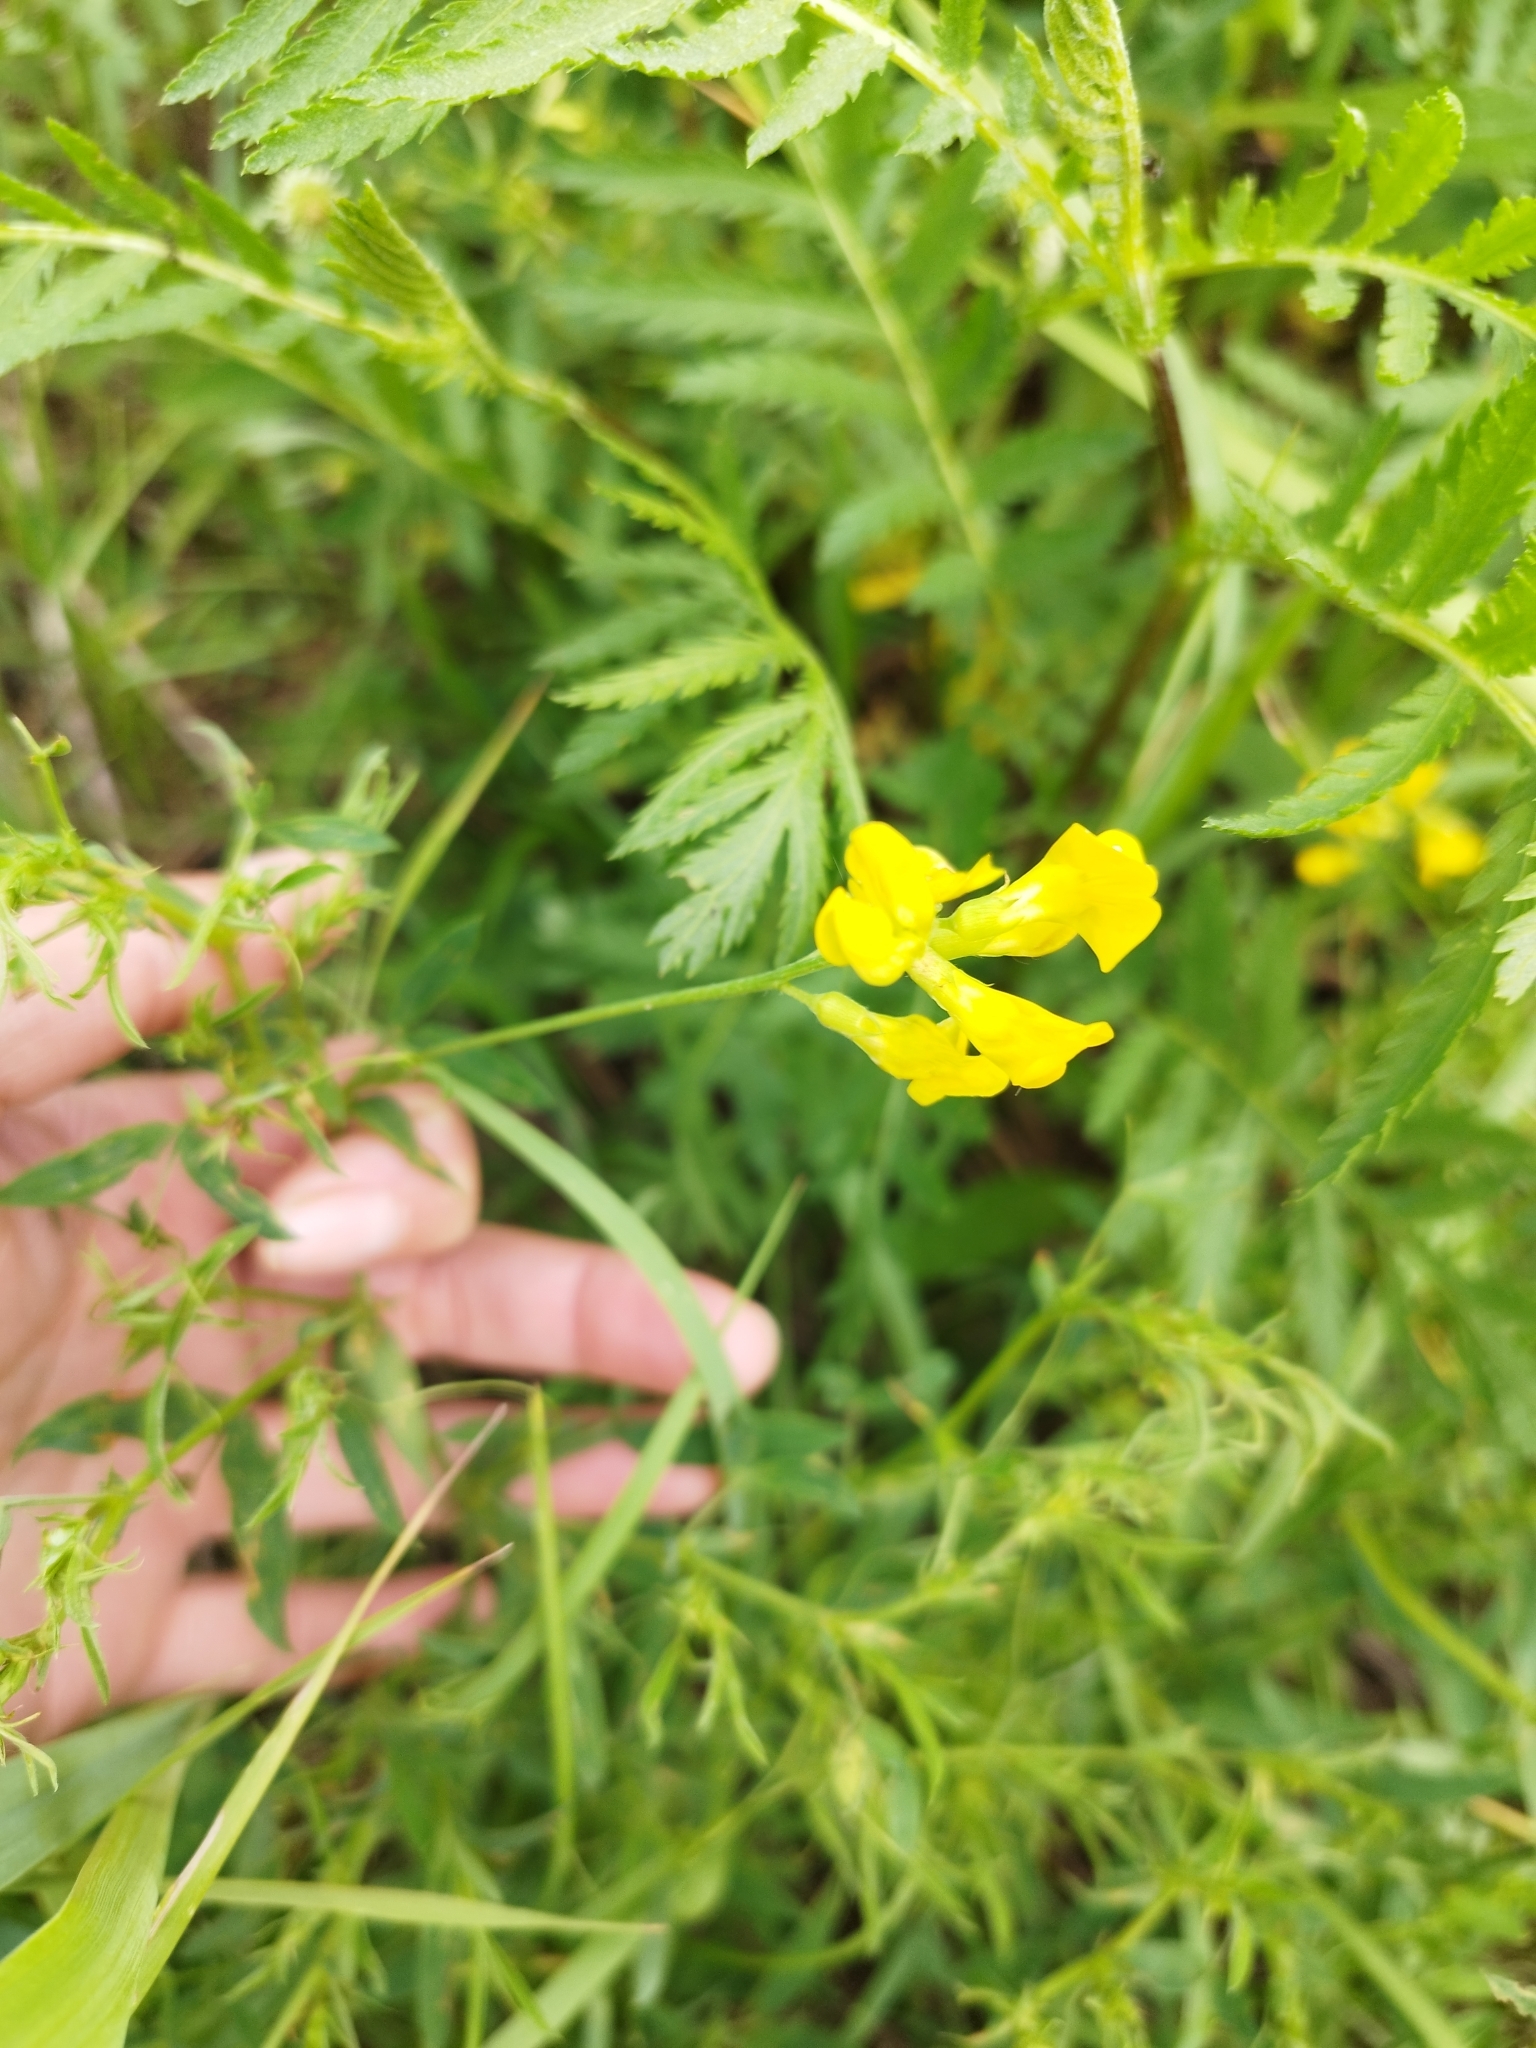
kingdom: Plantae
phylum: Tracheophyta
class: Magnoliopsida
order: Fabales
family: Fabaceae
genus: Lathyrus
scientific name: Lathyrus pratensis
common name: Meadow vetchling
